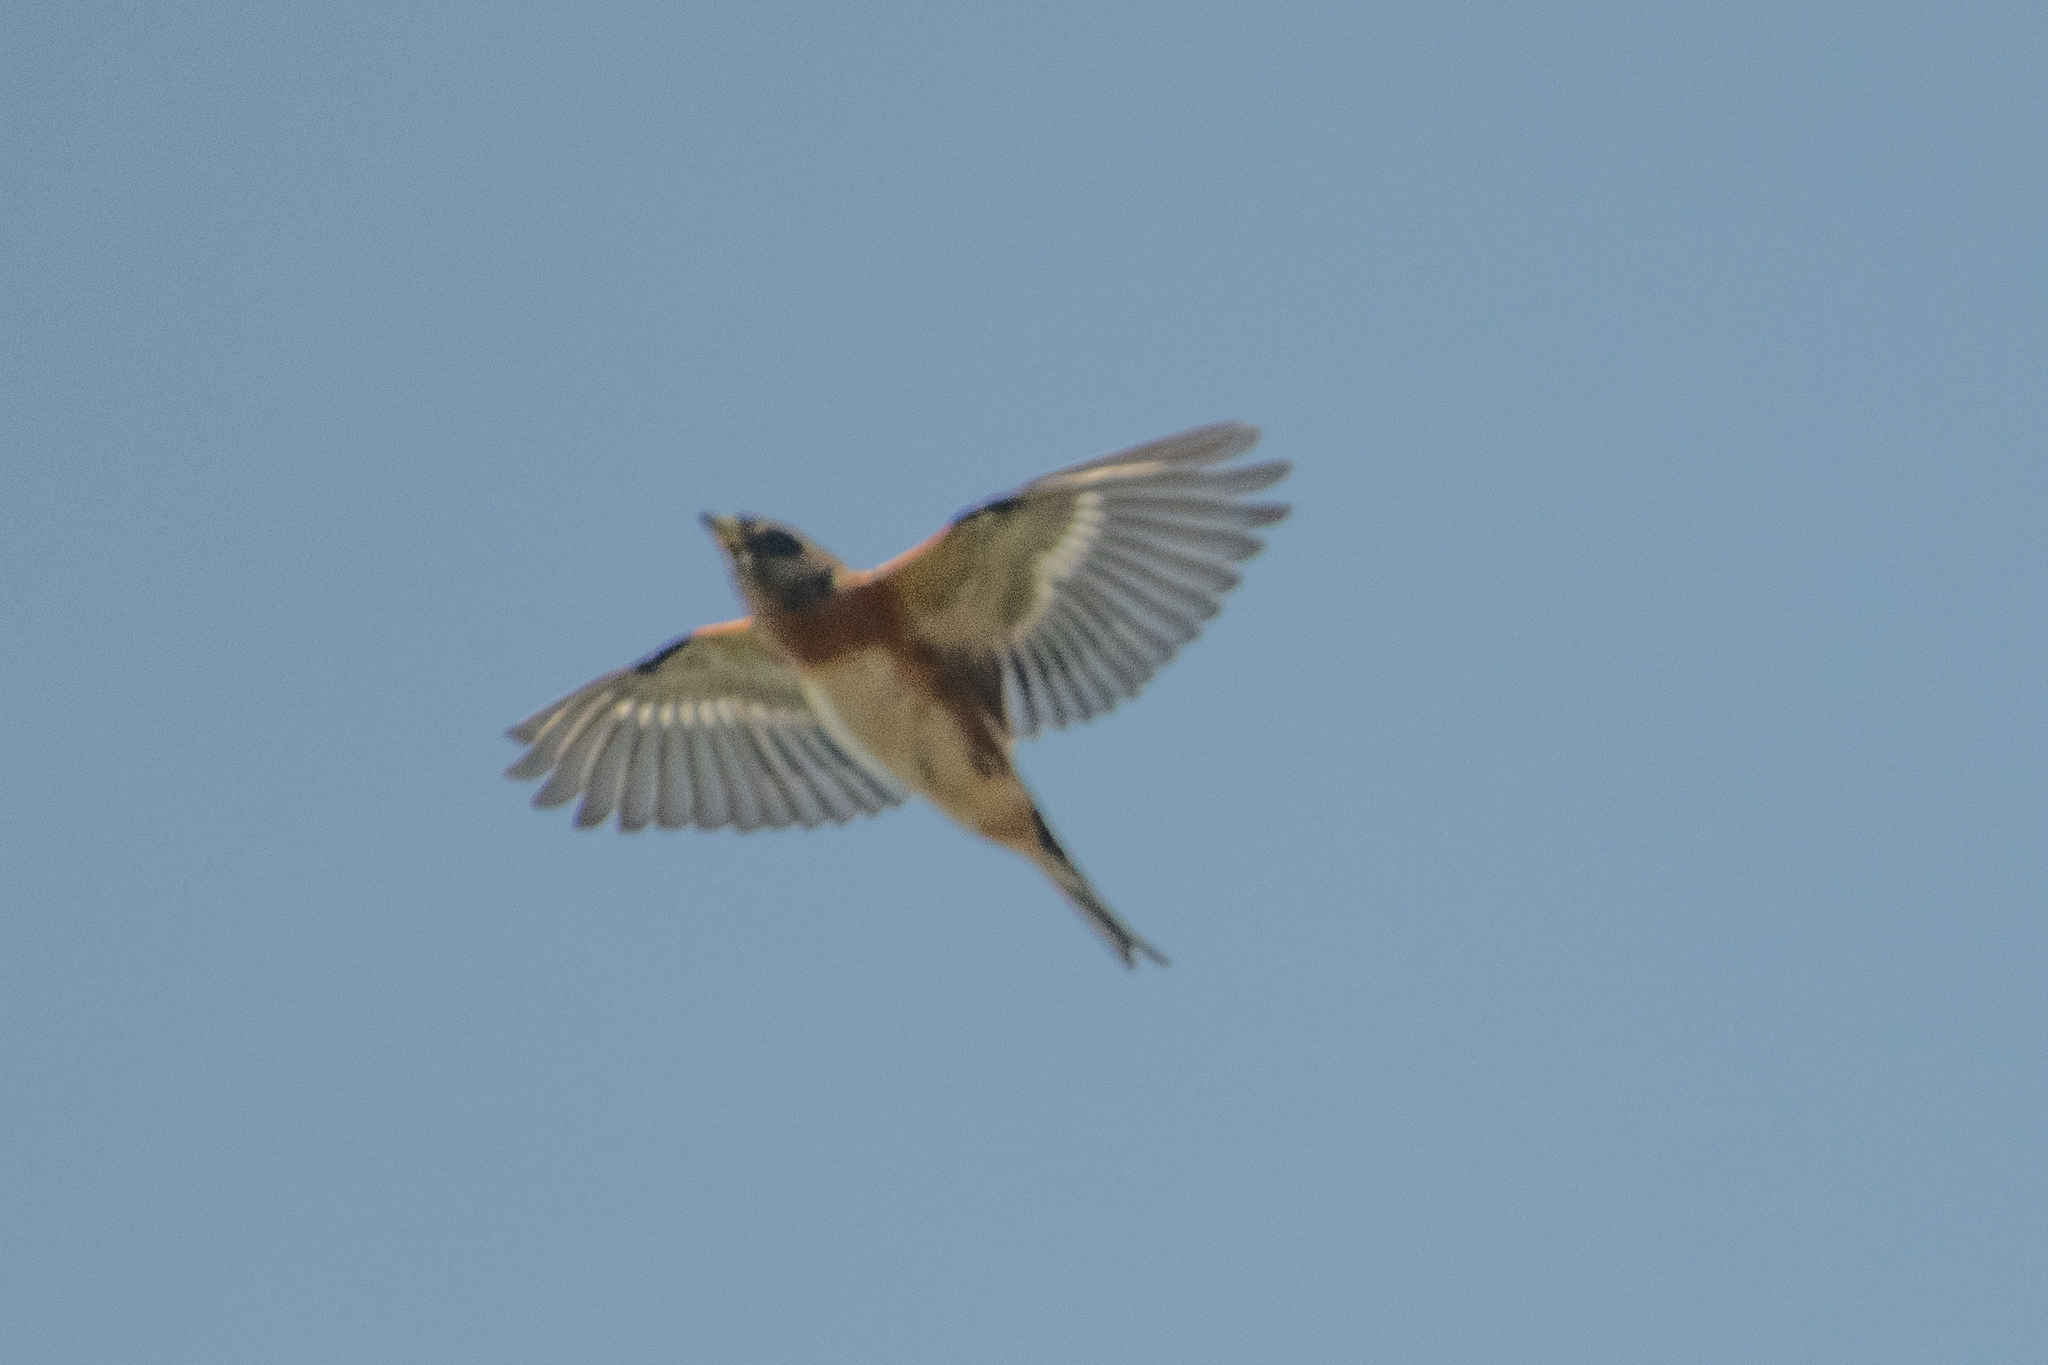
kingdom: Animalia
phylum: Chordata
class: Aves
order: Passeriformes
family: Fringillidae
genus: Fringilla
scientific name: Fringilla montifringilla
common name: Brambling
